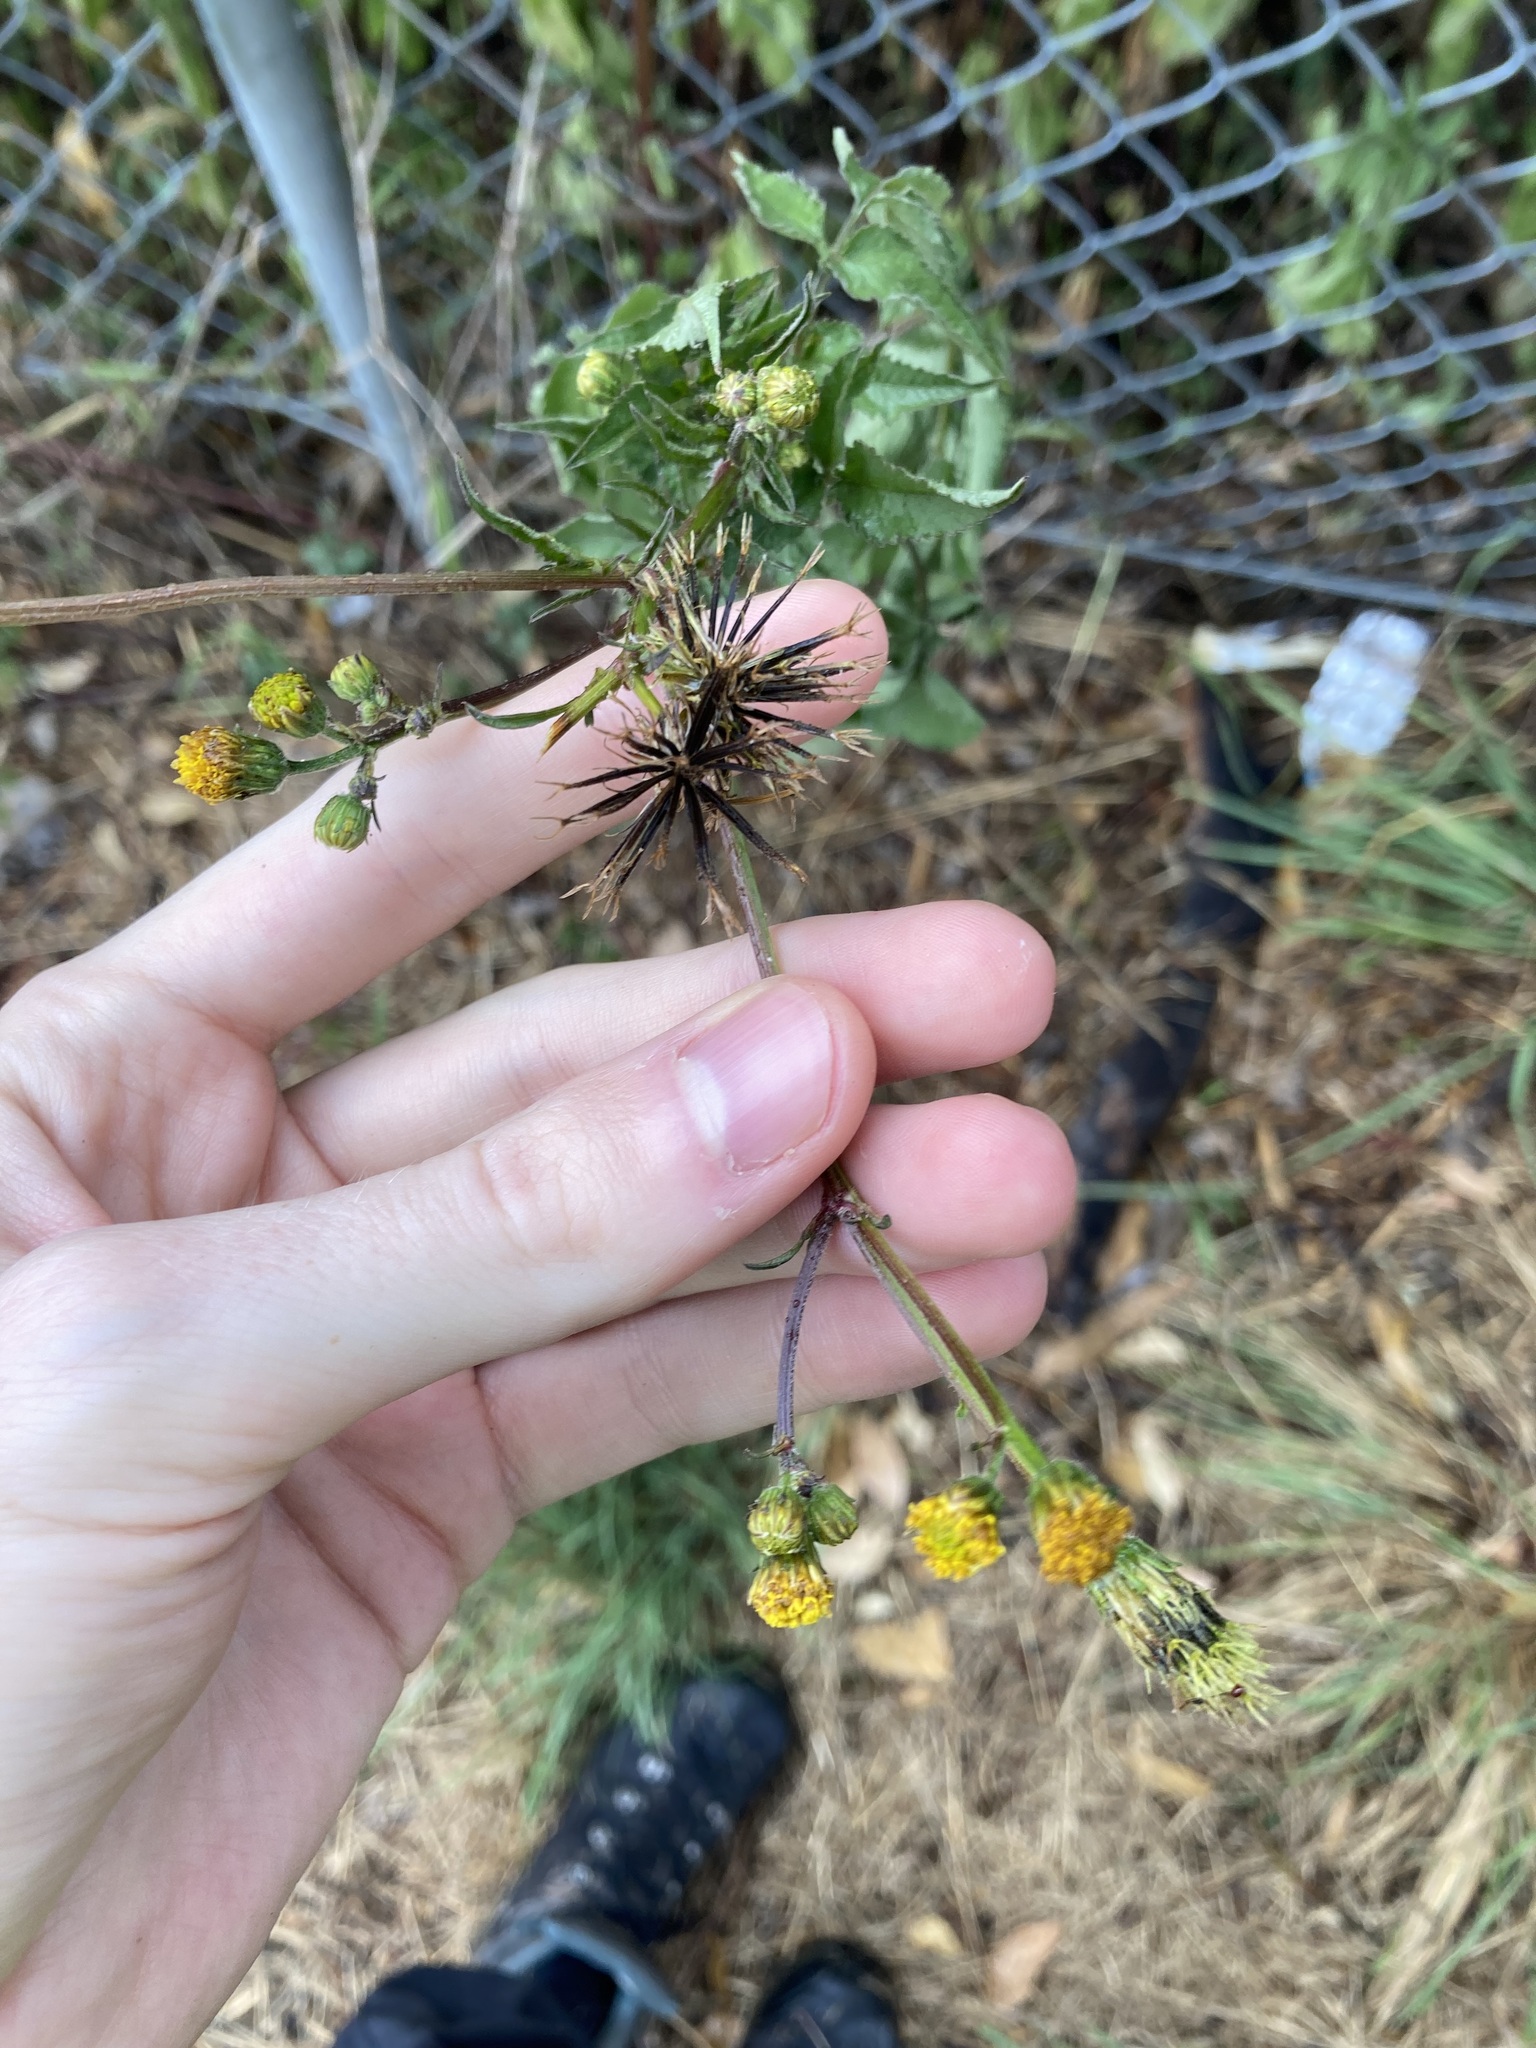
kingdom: Plantae
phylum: Tracheophyta
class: Magnoliopsida
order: Asterales
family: Asteraceae
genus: Bidens
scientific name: Bidens pilosa
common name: Black-jack
